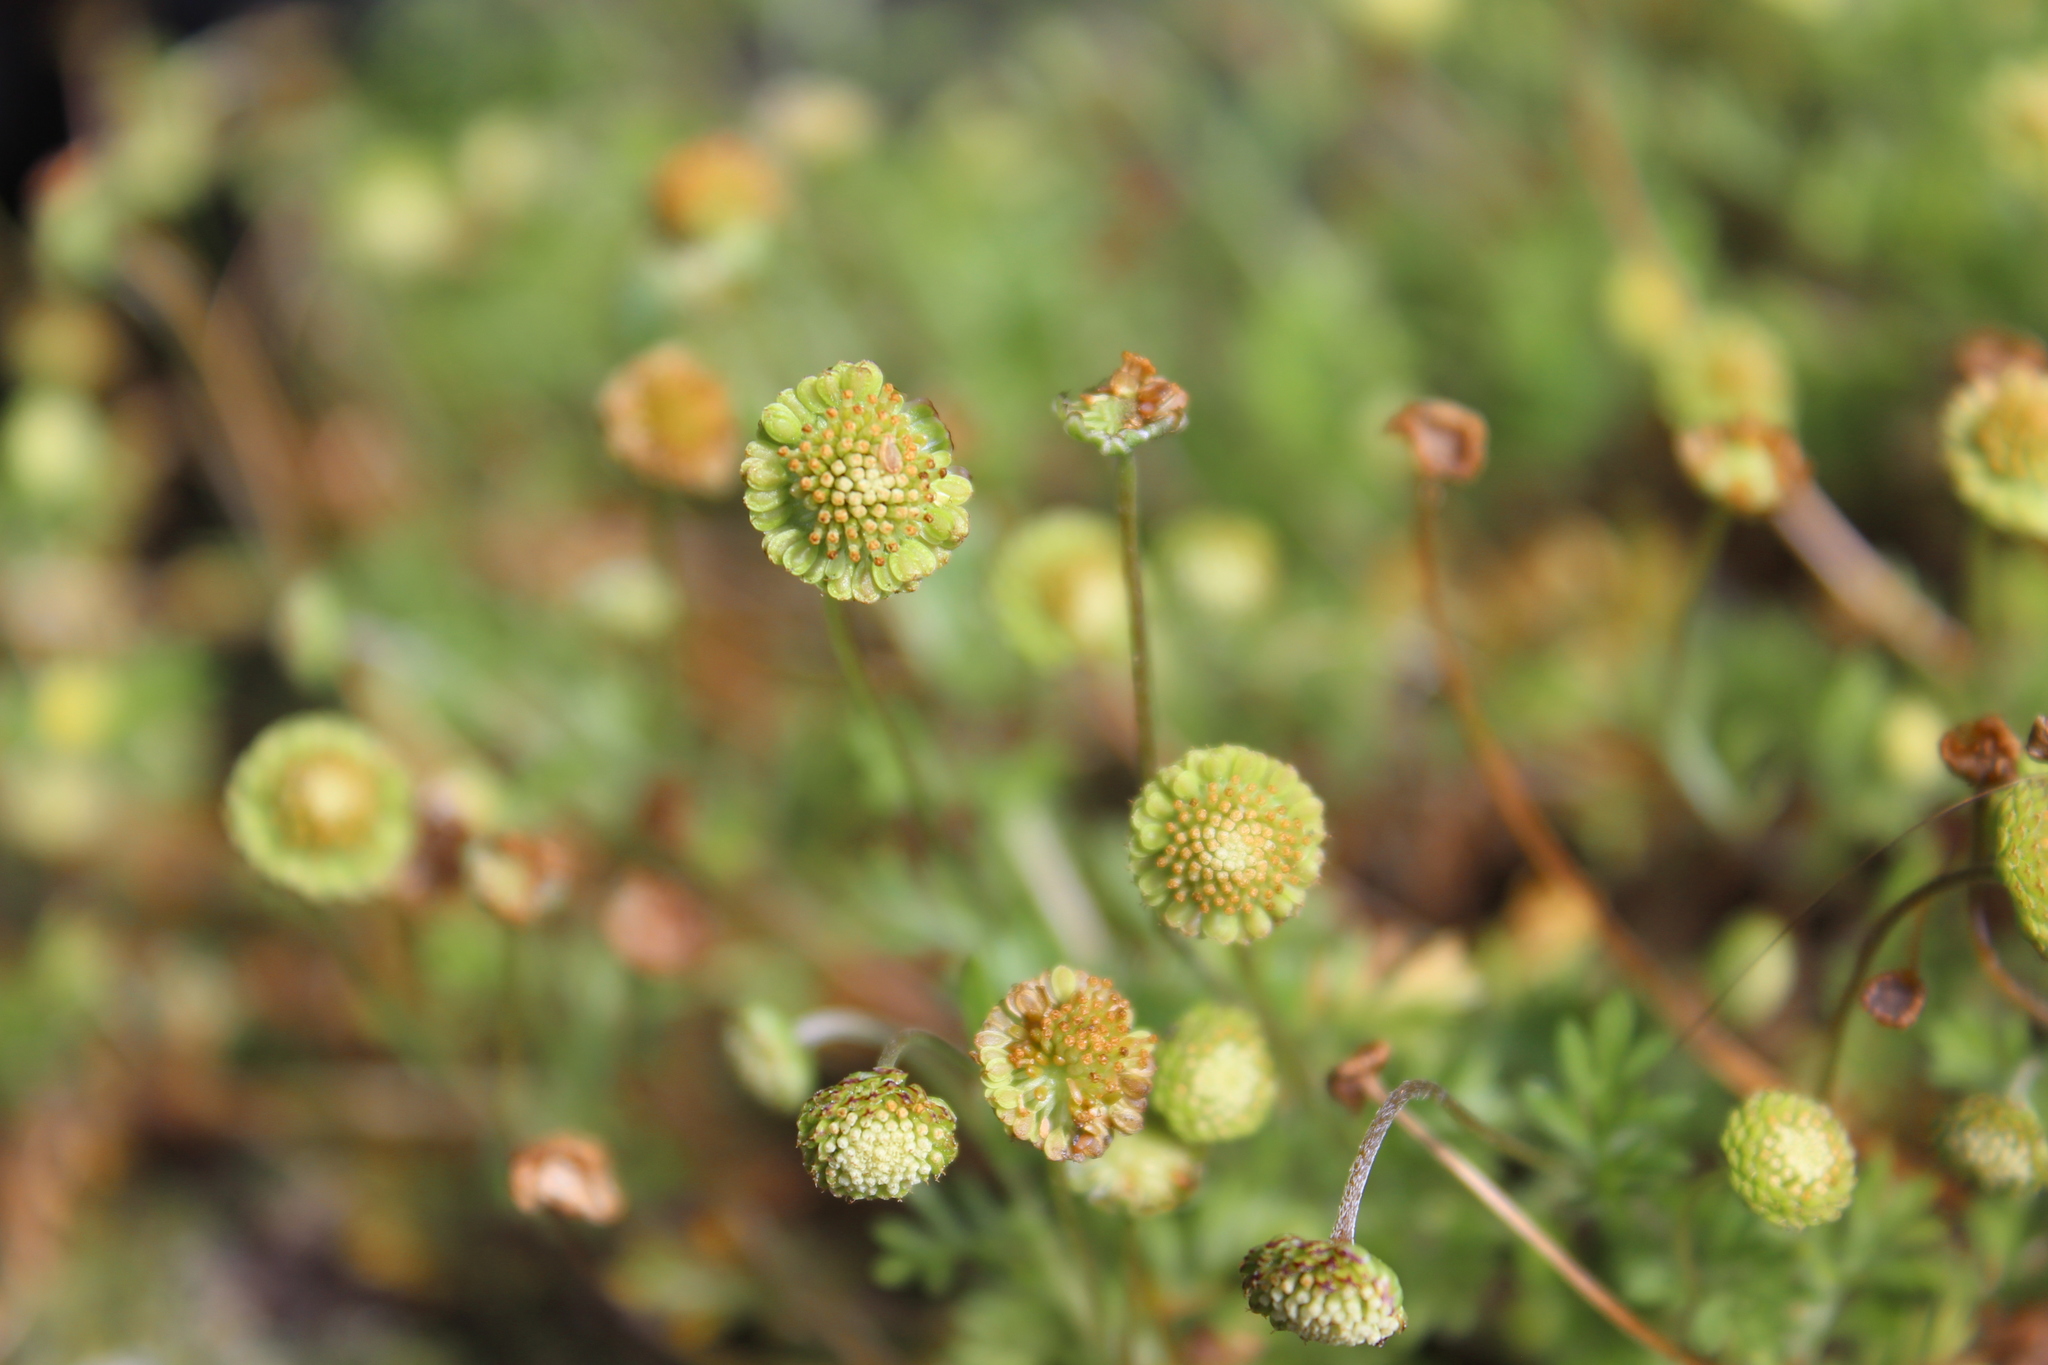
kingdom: Plantae
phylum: Tracheophyta
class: Magnoliopsida
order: Asterales
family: Asteraceae
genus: Cotula
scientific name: Cotula australis
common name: Australian waterbuttons
